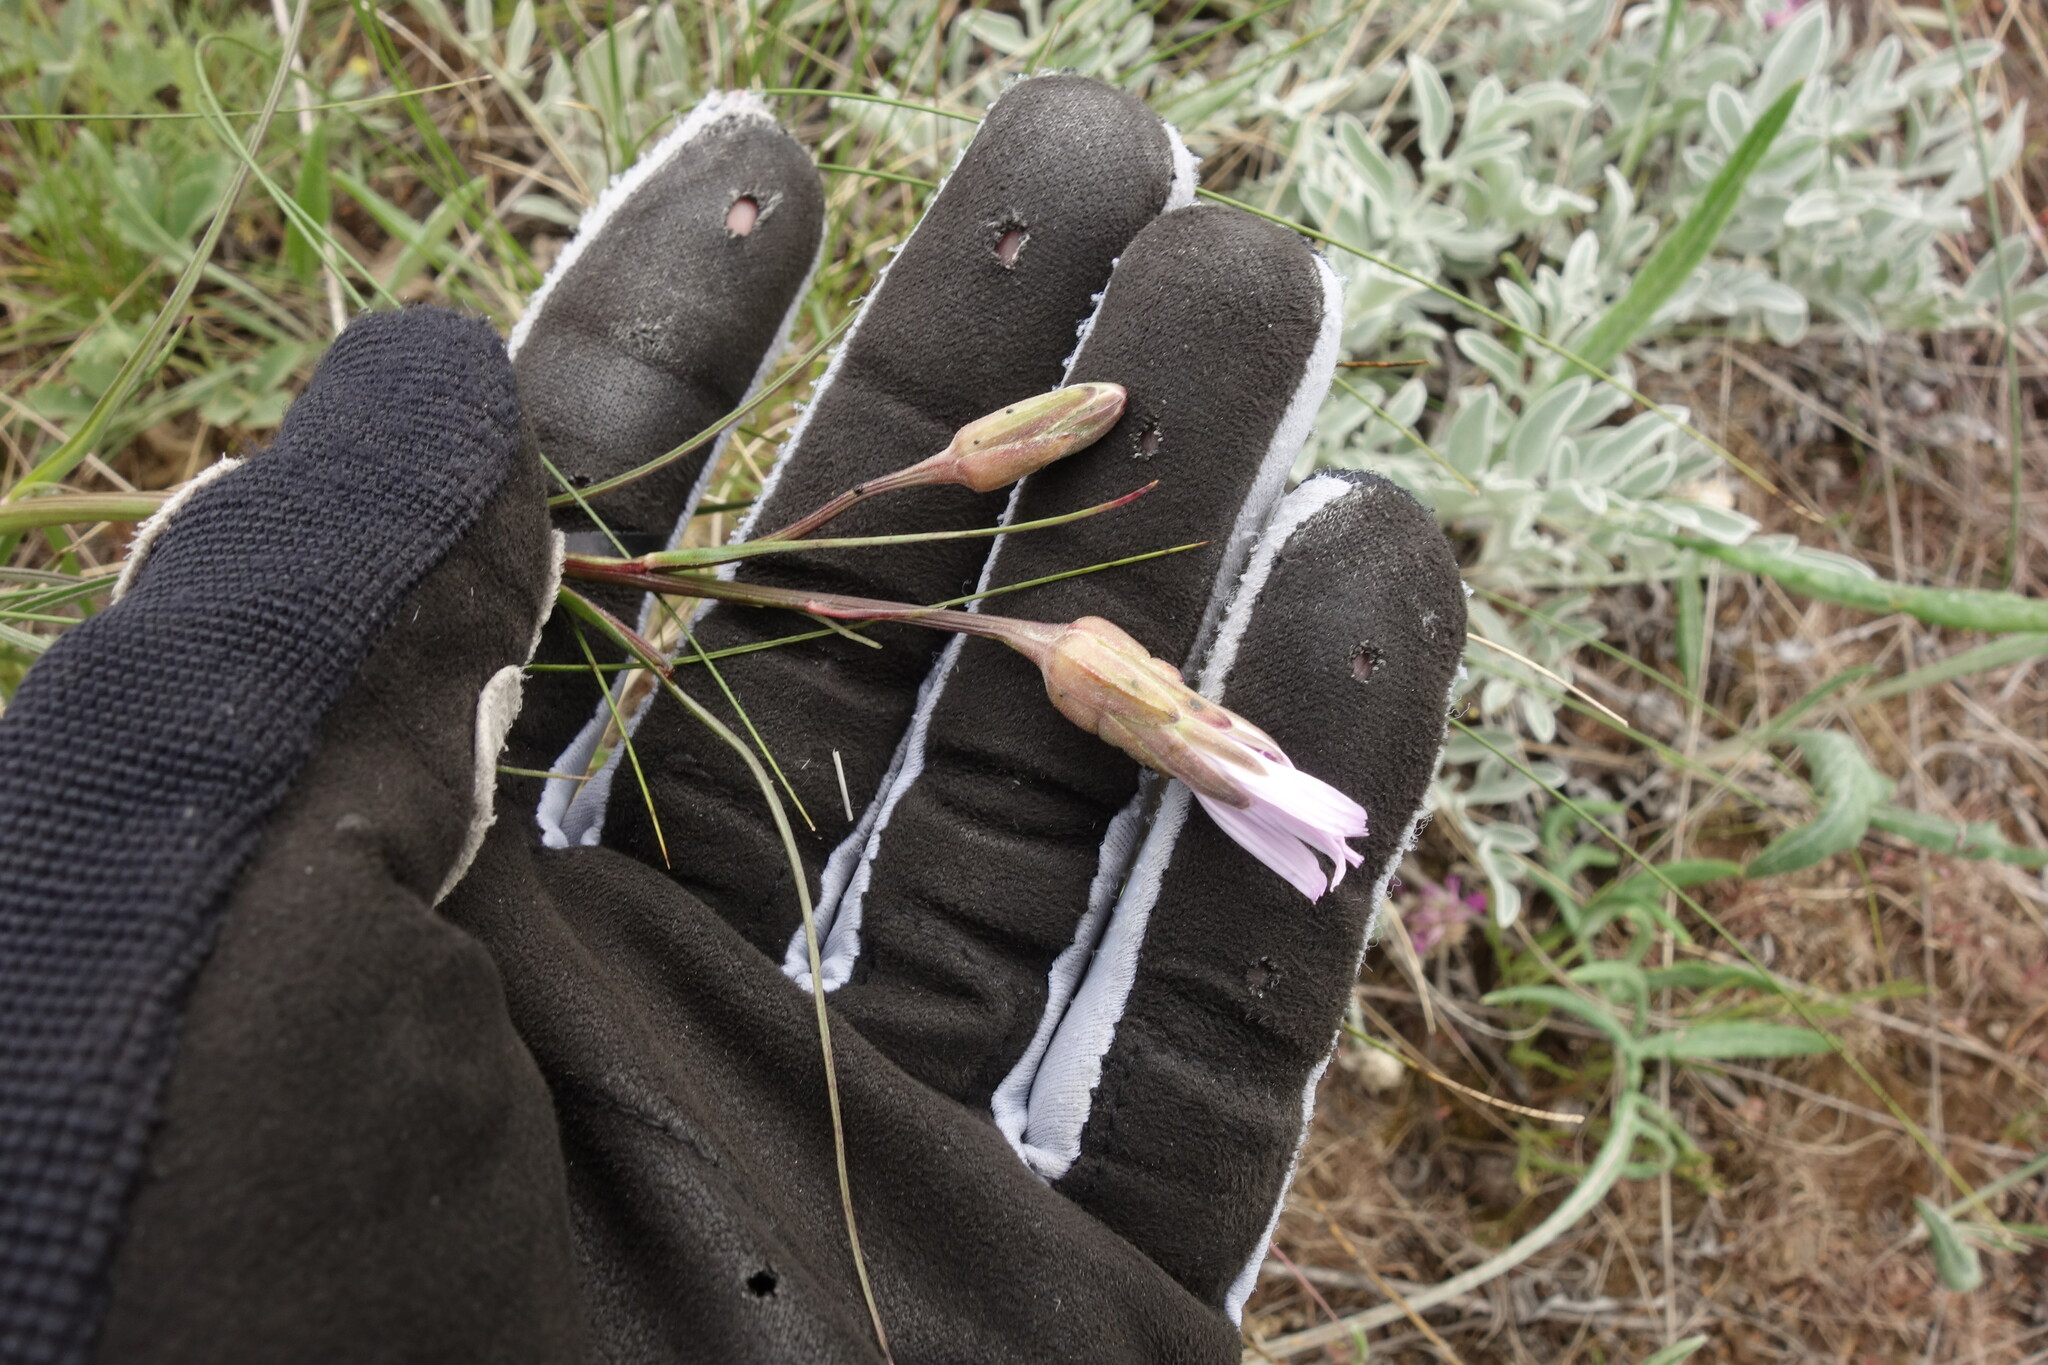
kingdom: Plantae
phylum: Tracheophyta
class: Magnoliopsida
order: Asterales
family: Asteraceae
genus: Scorzonera
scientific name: Scorzonera purpurea
